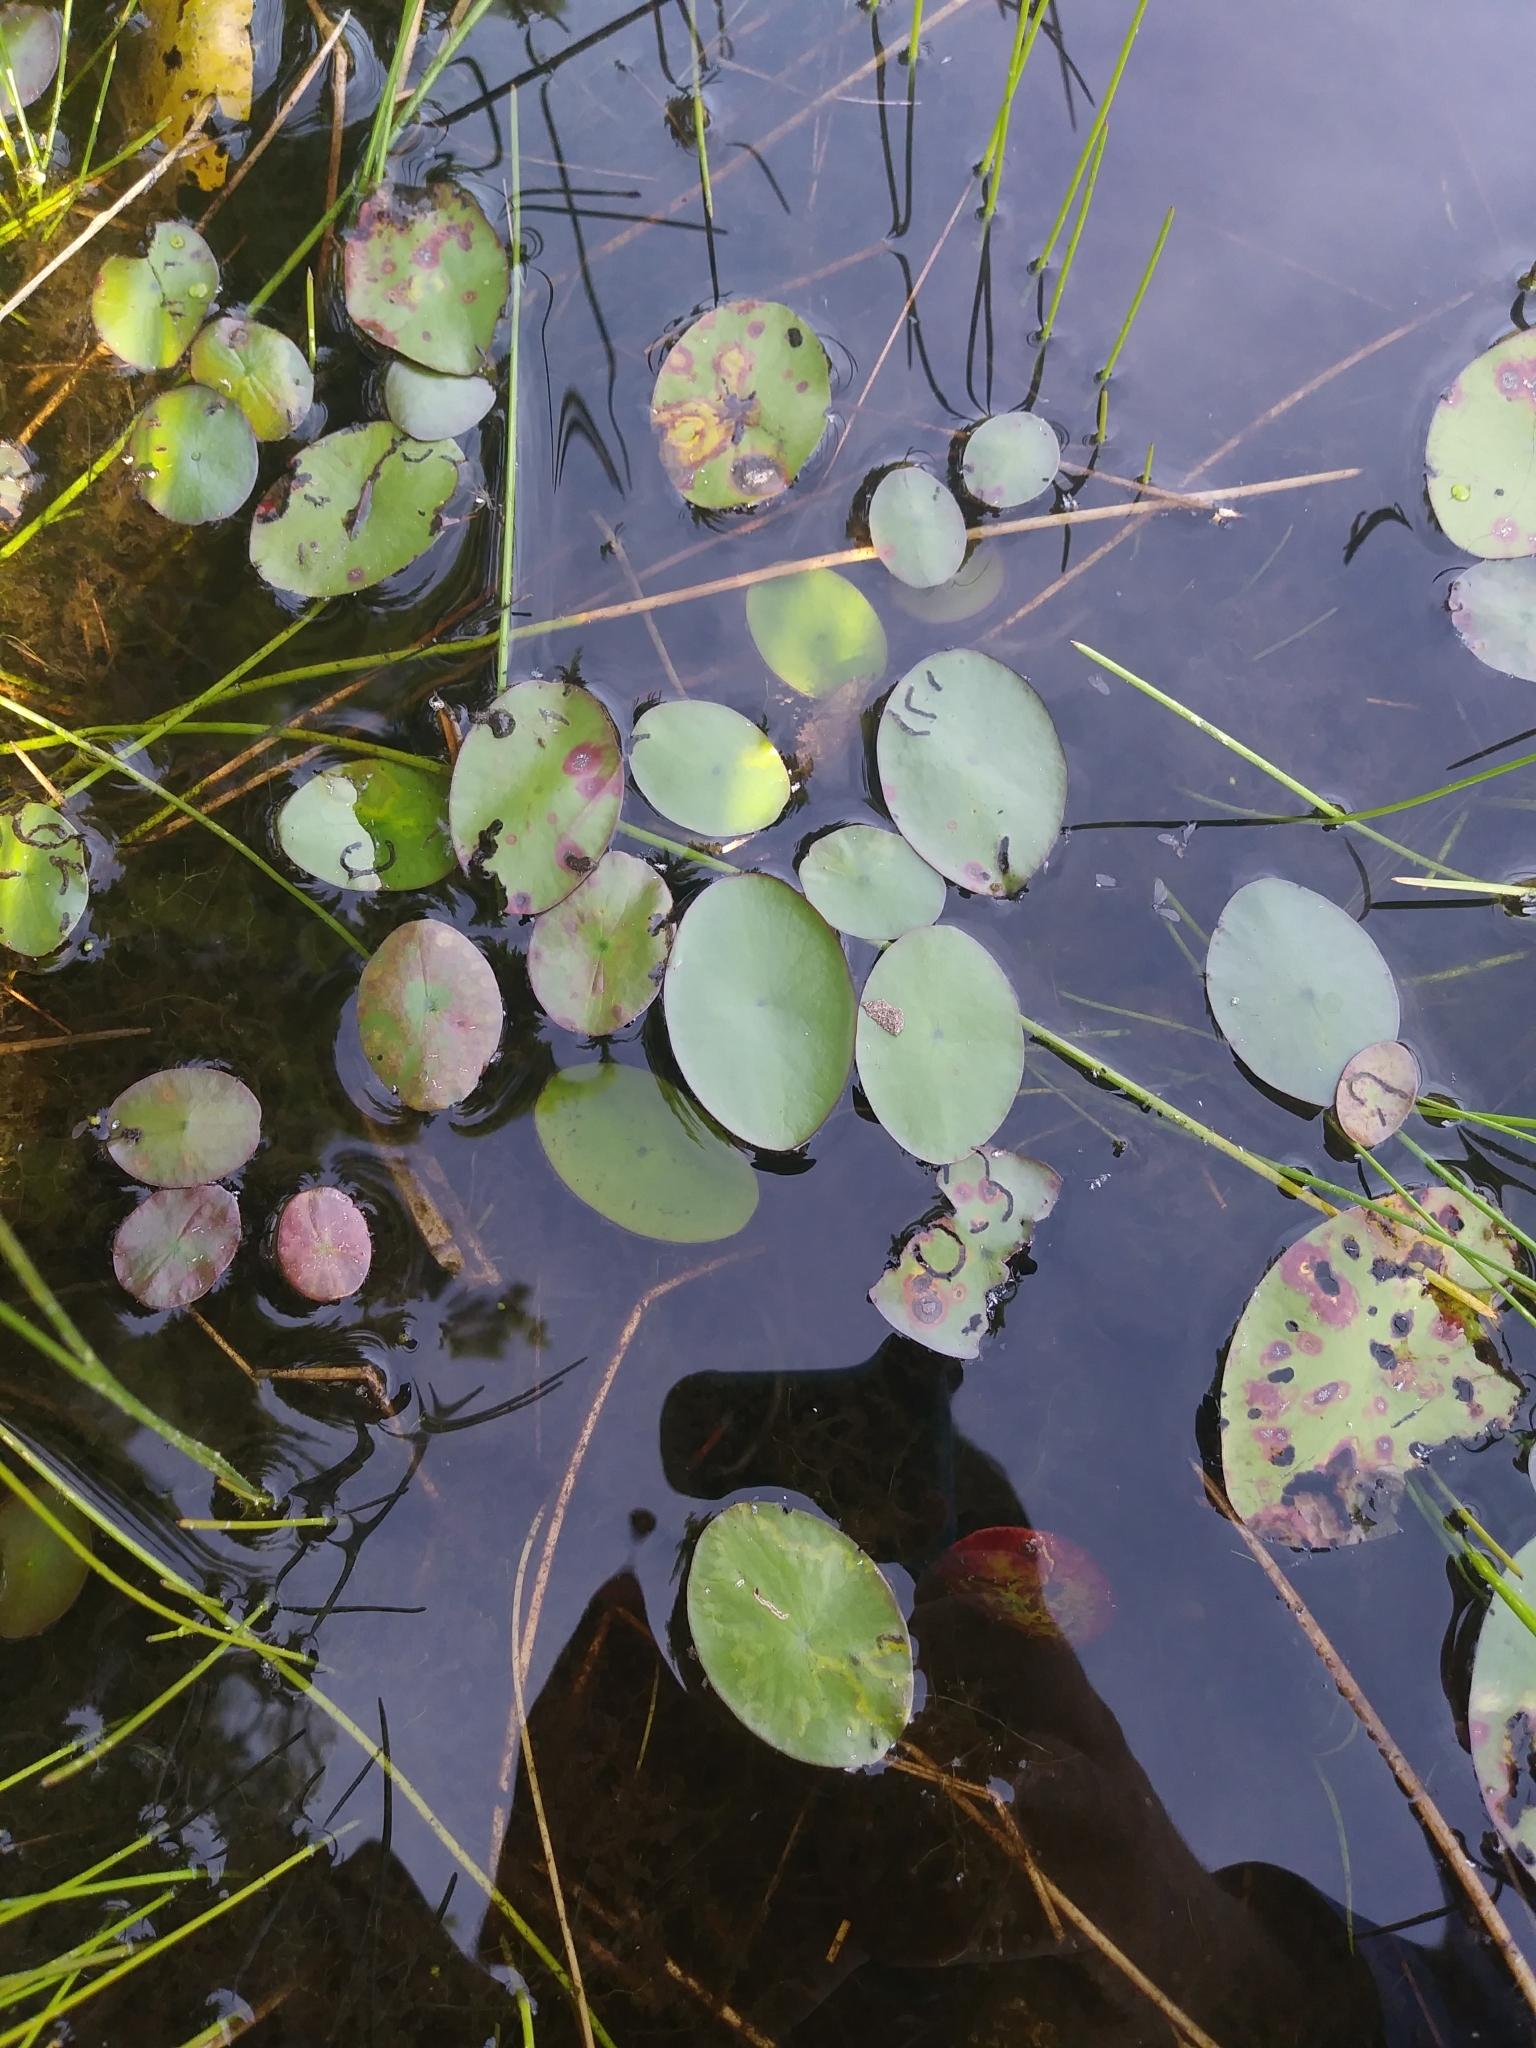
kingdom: Plantae
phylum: Tracheophyta
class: Magnoliopsida
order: Nymphaeales
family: Cabombaceae
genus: Brasenia
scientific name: Brasenia schreberi
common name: Water-shield
